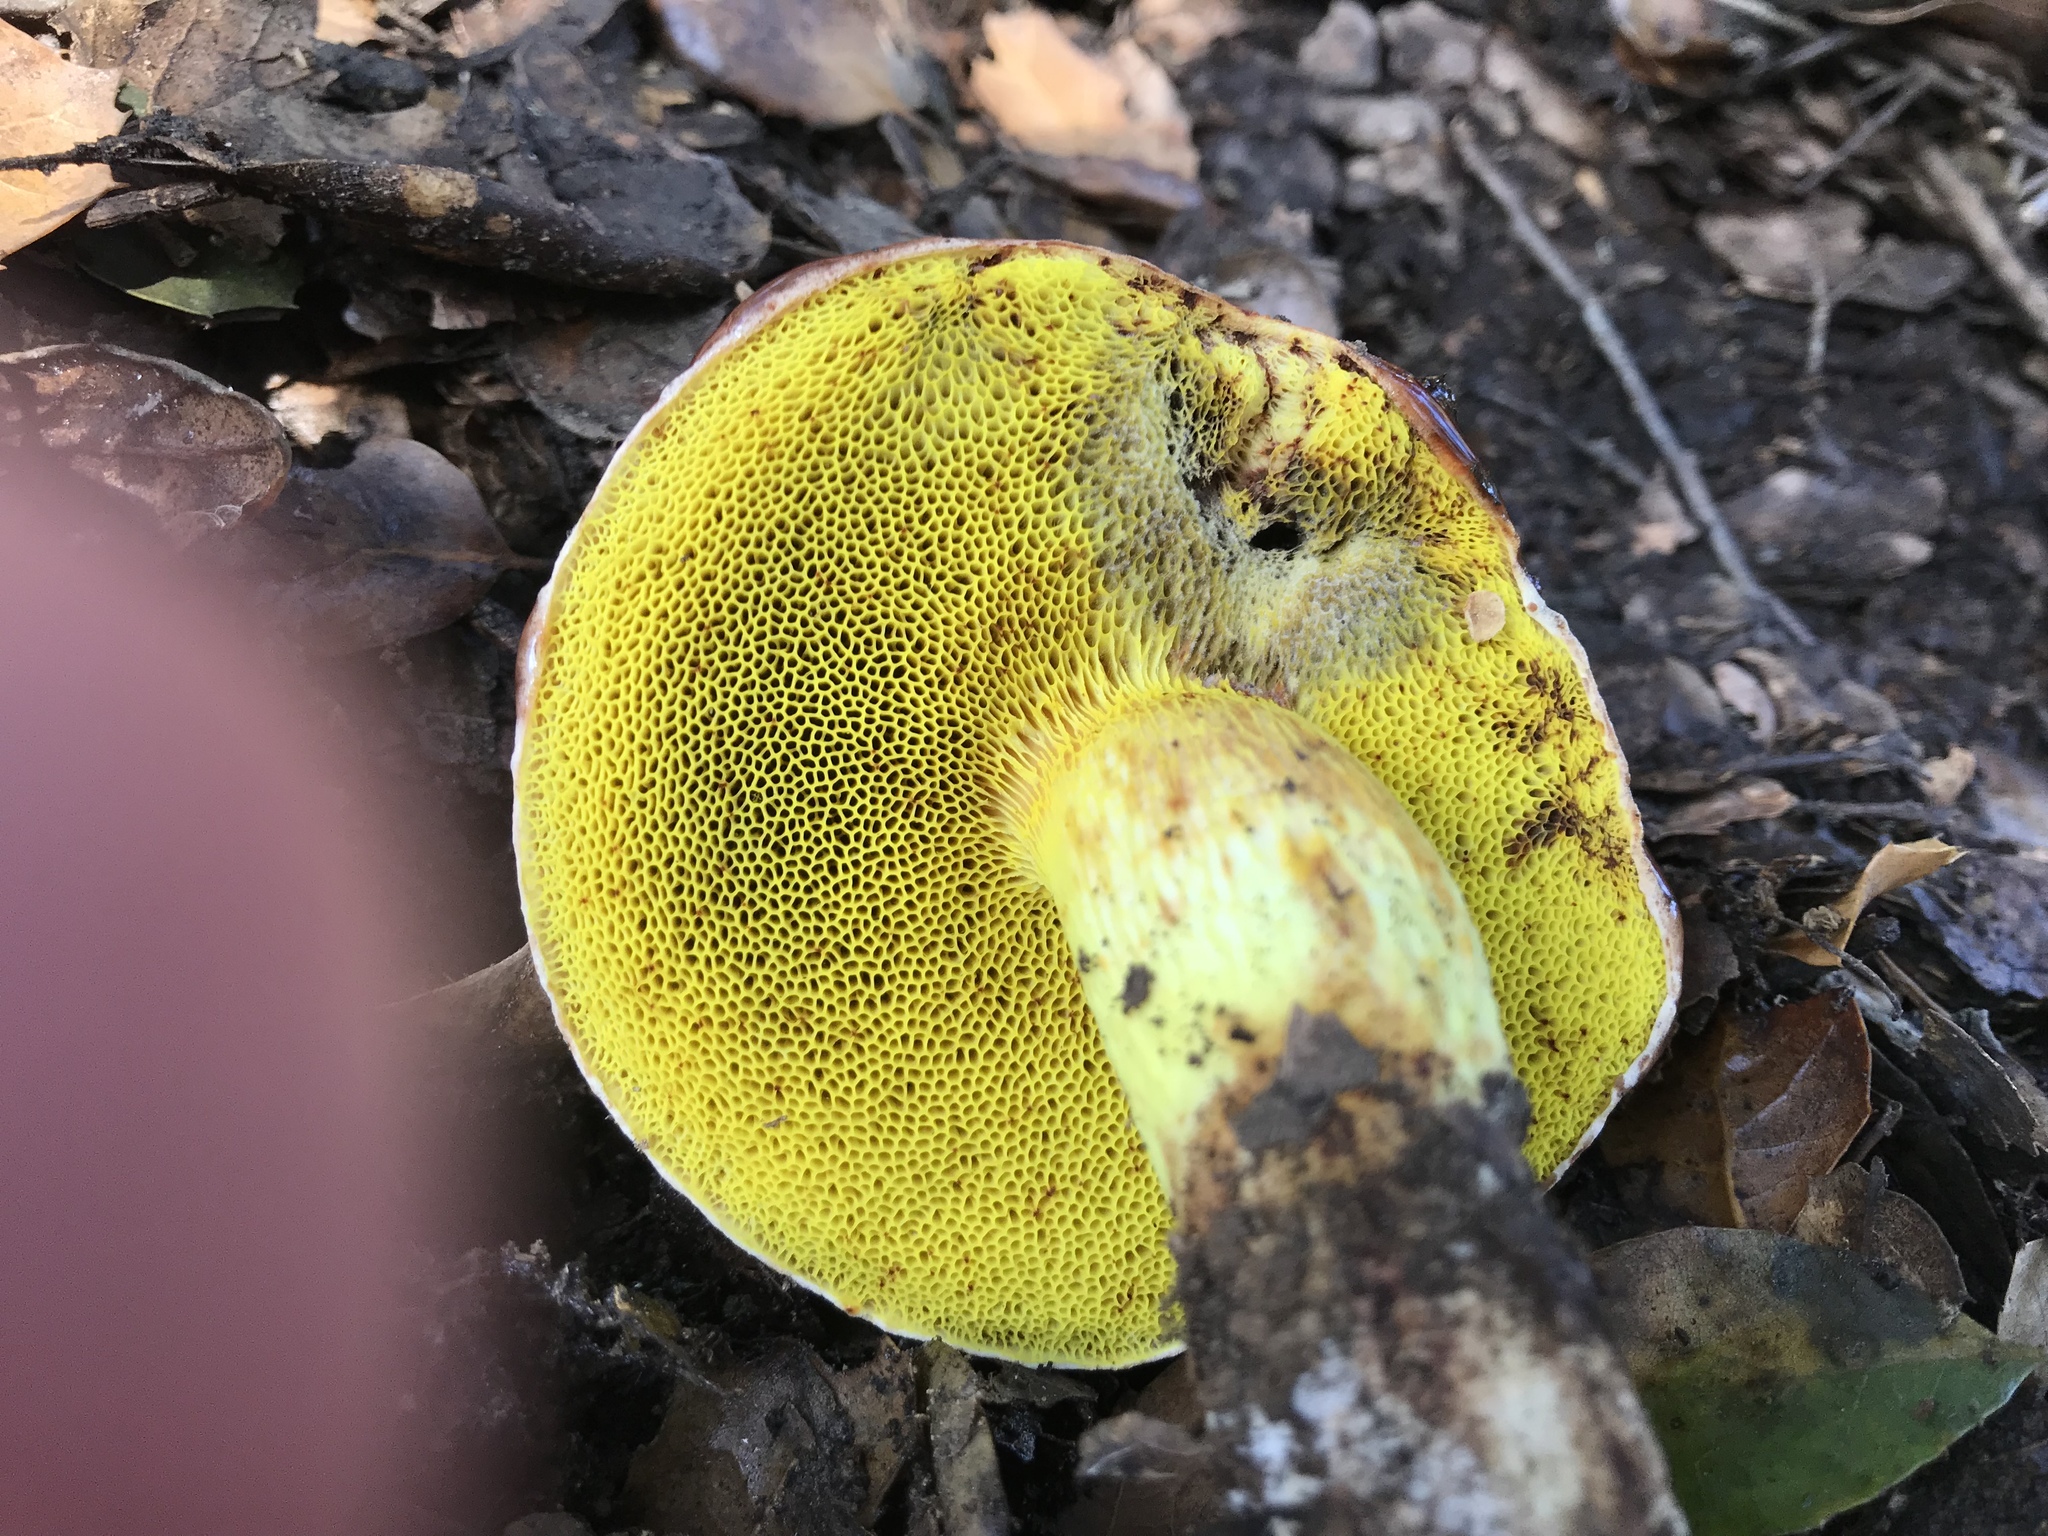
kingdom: Fungi
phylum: Basidiomycota
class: Agaricomycetes
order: Boletales
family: Boletaceae
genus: Aureoboletus
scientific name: Aureoboletus flaviporus
